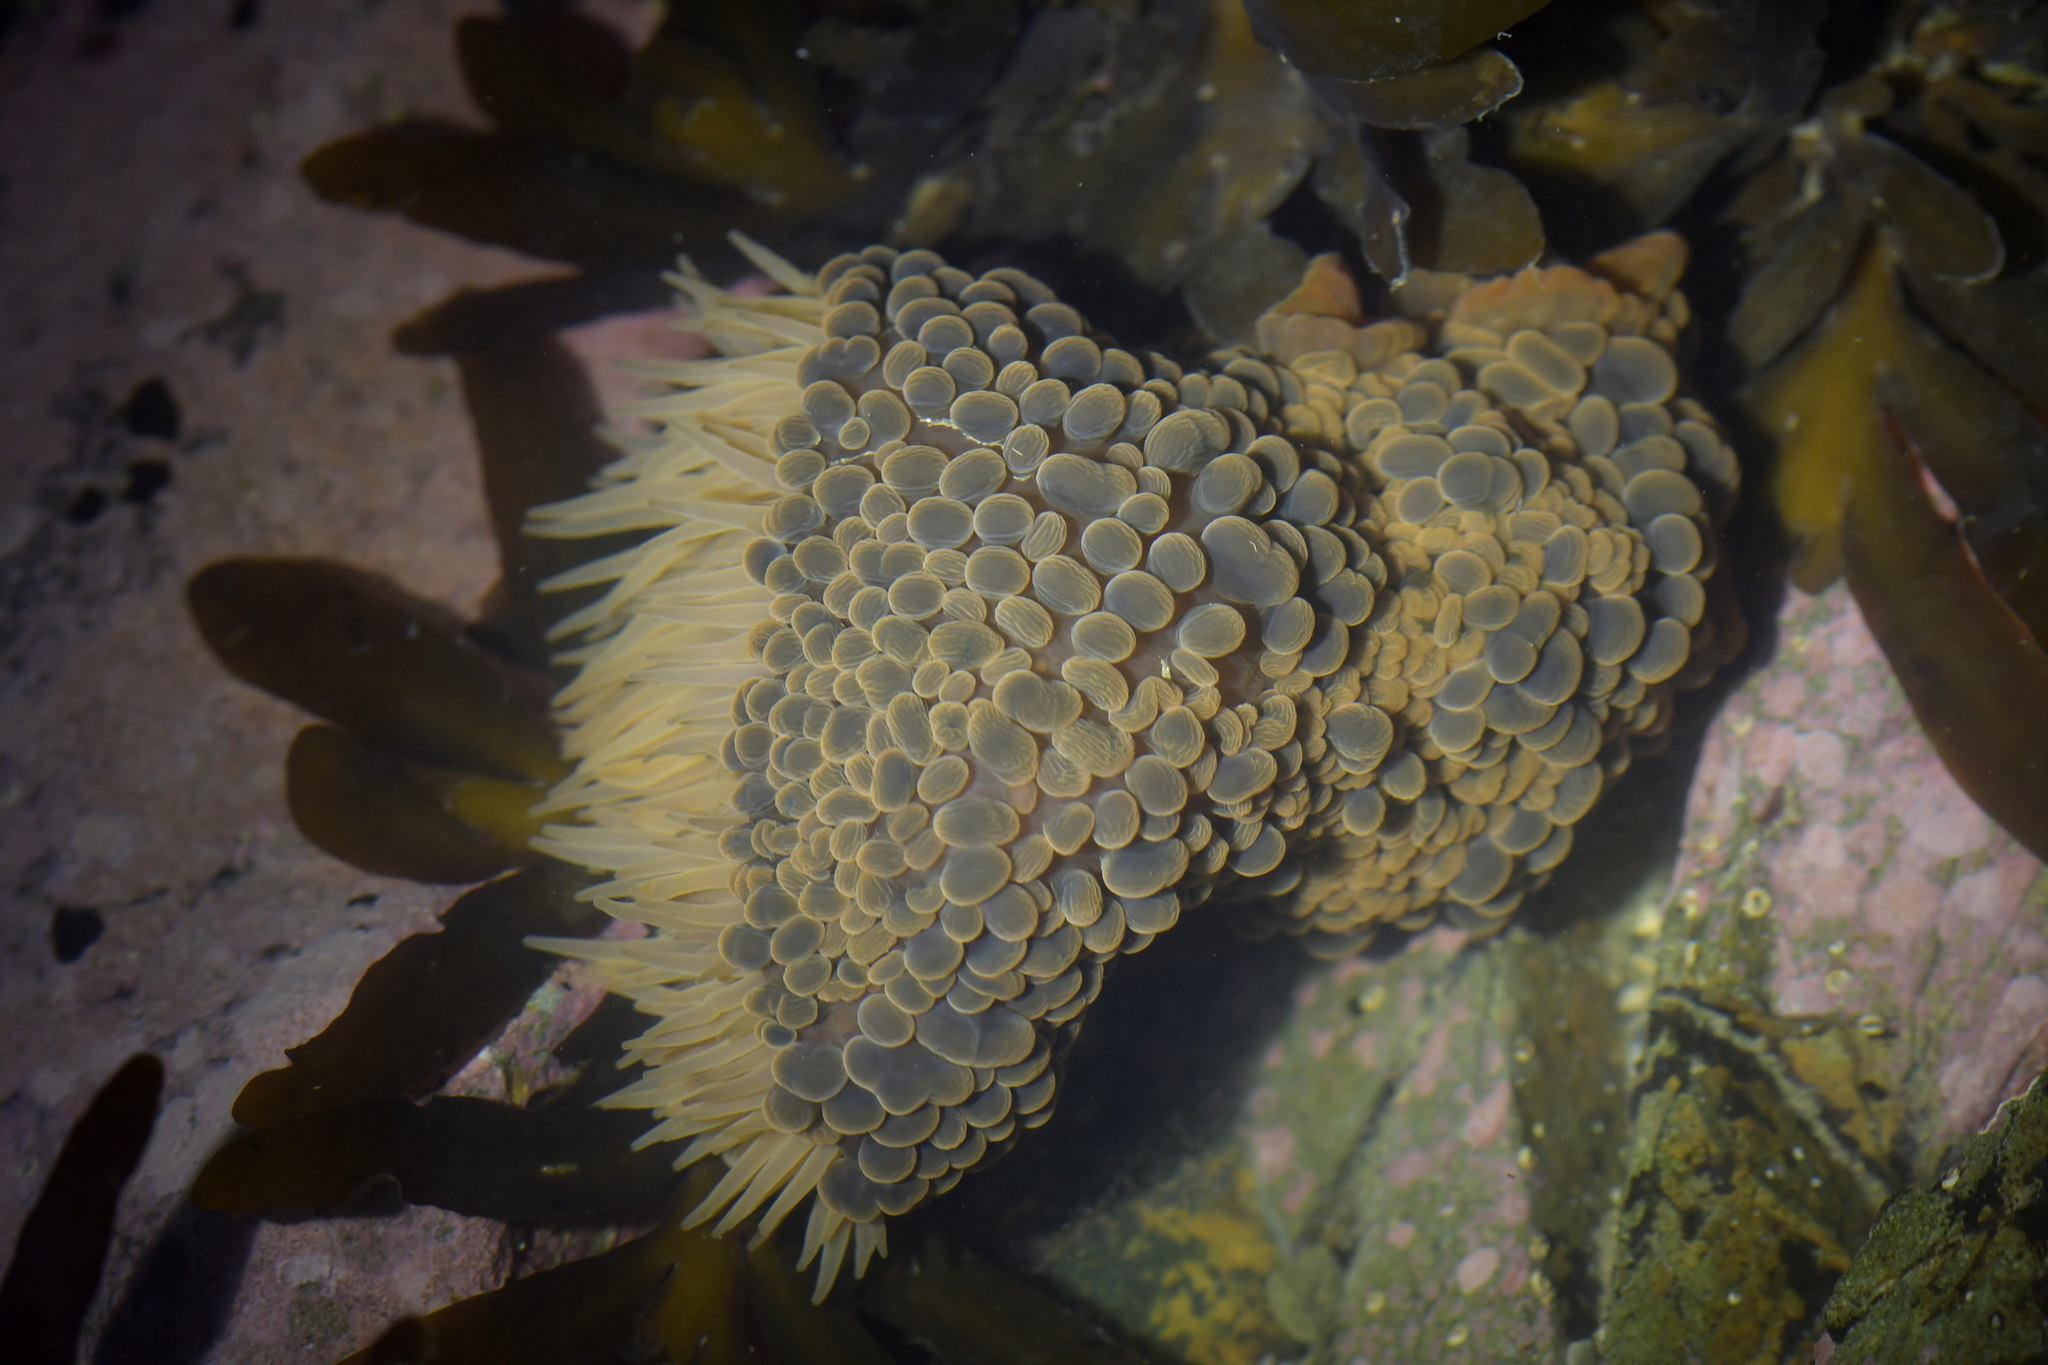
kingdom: Animalia
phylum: Cnidaria
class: Anthozoa
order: Actiniaria
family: Actiniidae
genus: Phlyctenactis
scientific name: Phlyctenactis tuberculosa
